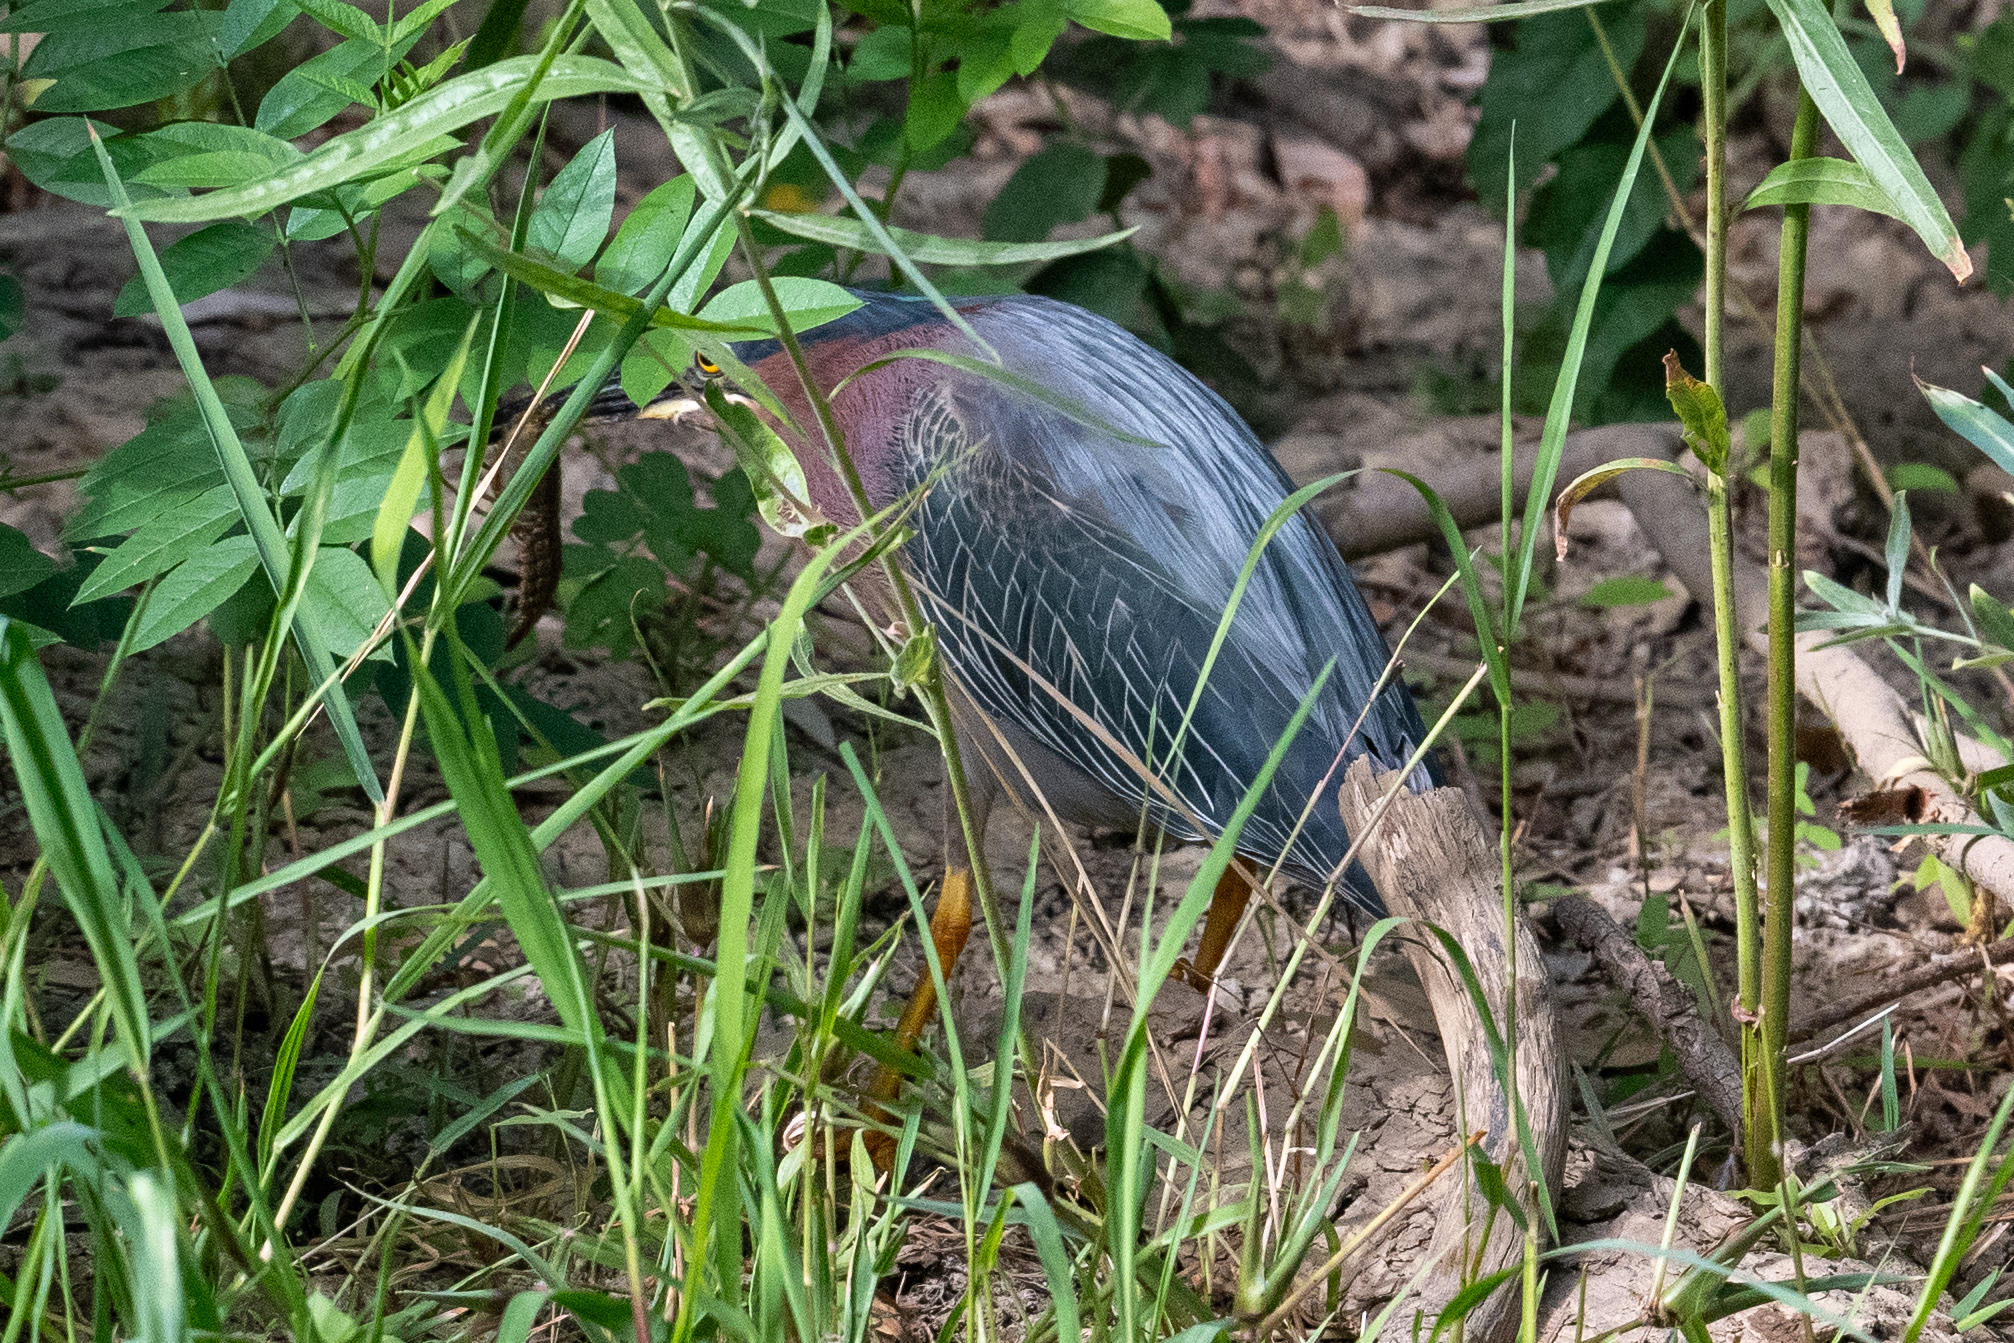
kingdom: Animalia
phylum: Chordata
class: Aves
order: Pelecaniformes
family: Ardeidae
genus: Butorides
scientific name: Butorides virescens
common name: Green heron
